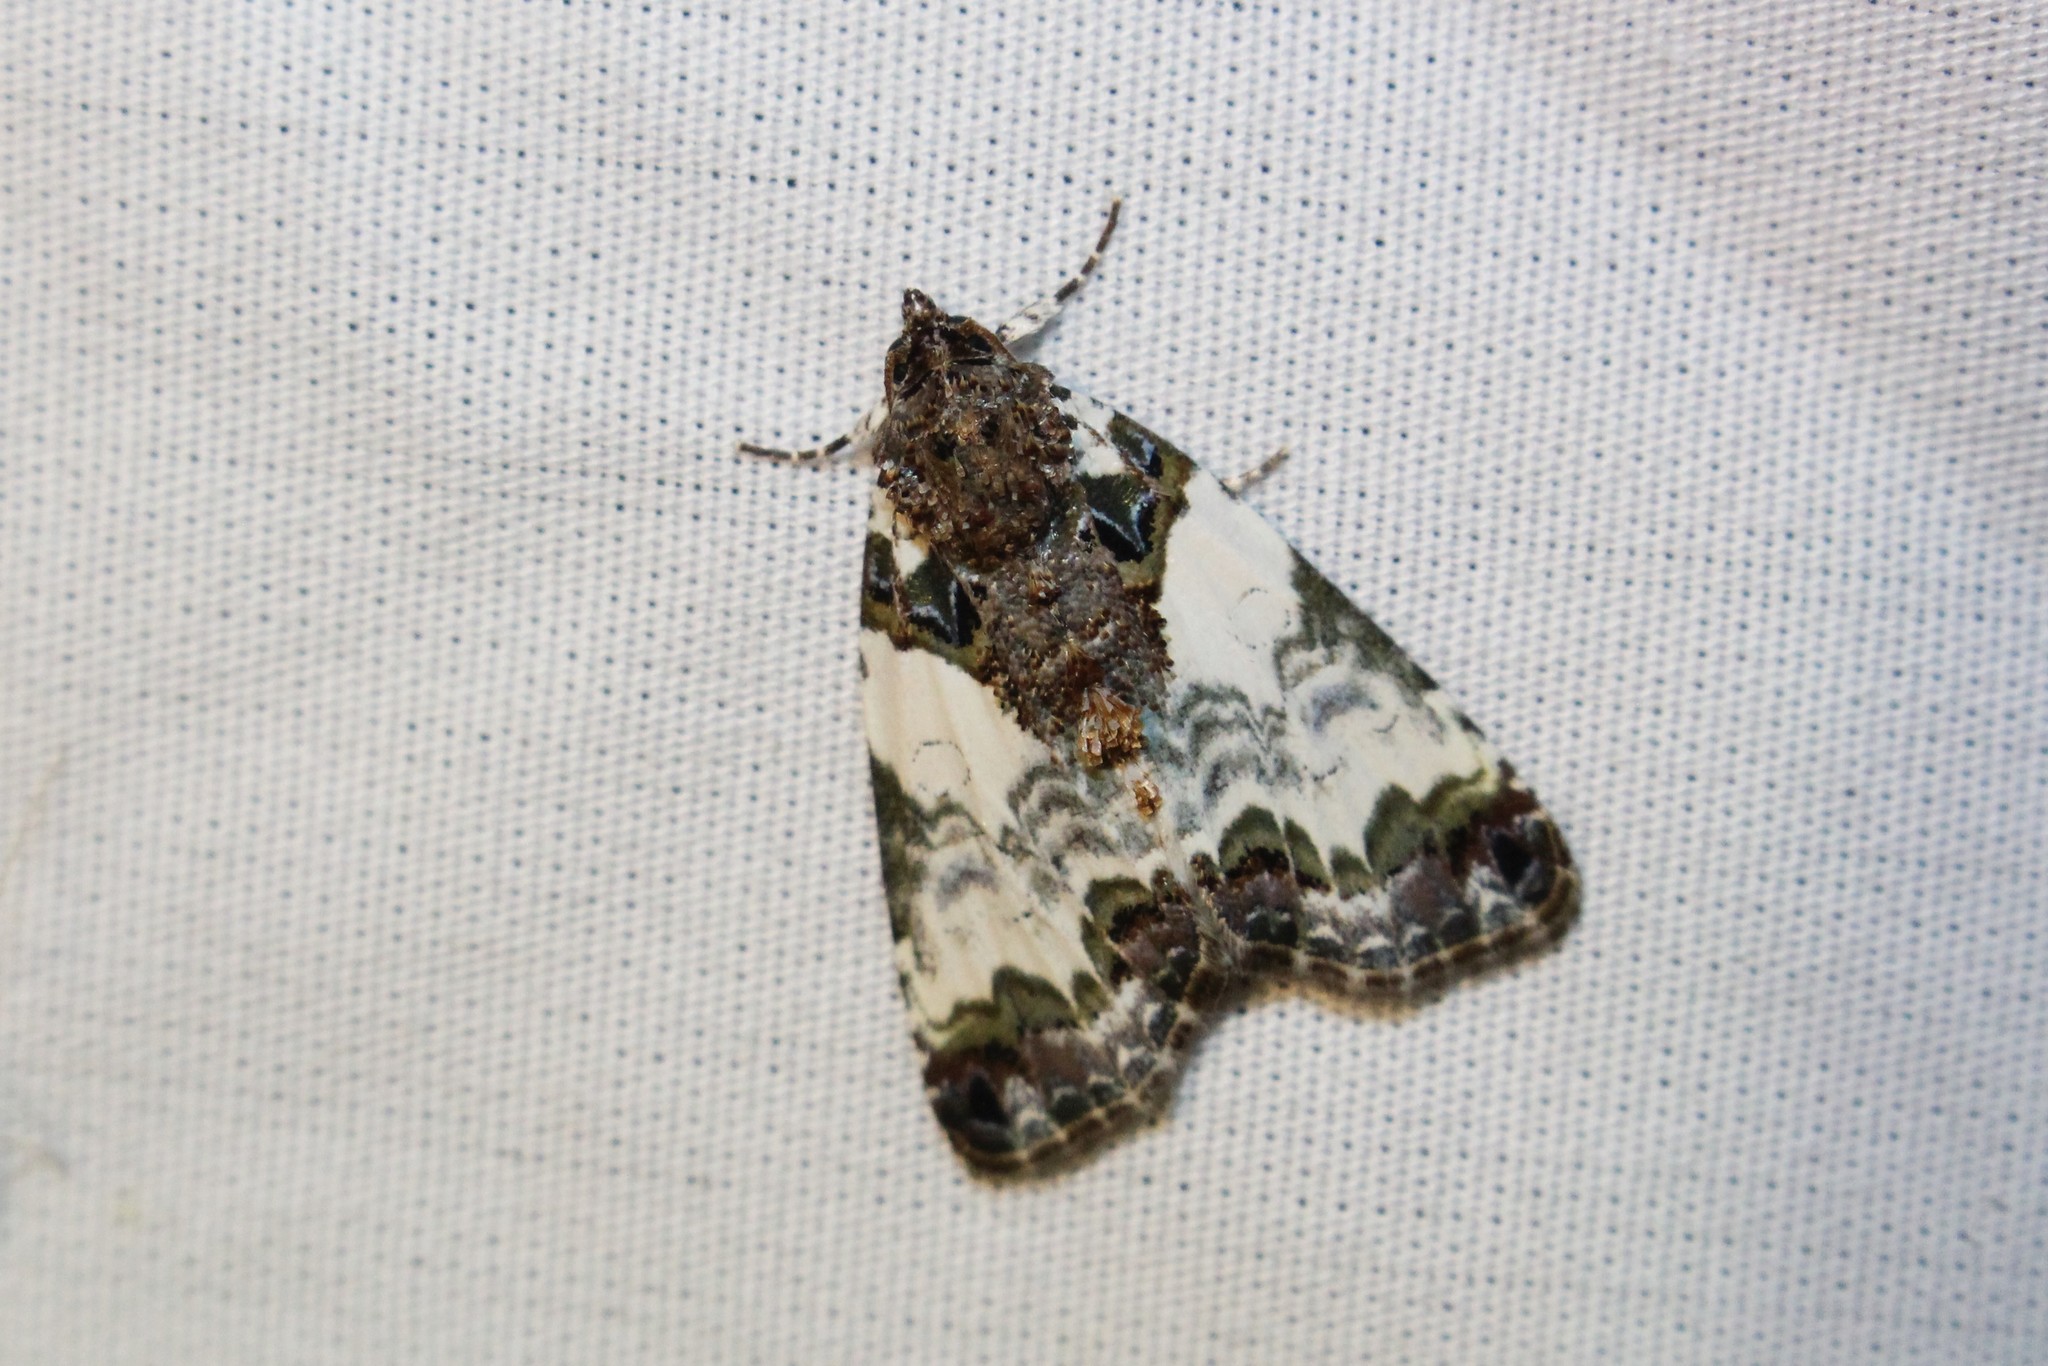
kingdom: Animalia
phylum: Arthropoda
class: Insecta
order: Lepidoptera
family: Noctuidae
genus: Cerma
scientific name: Cerma cerintha
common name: Tufted bird-dropping moth
